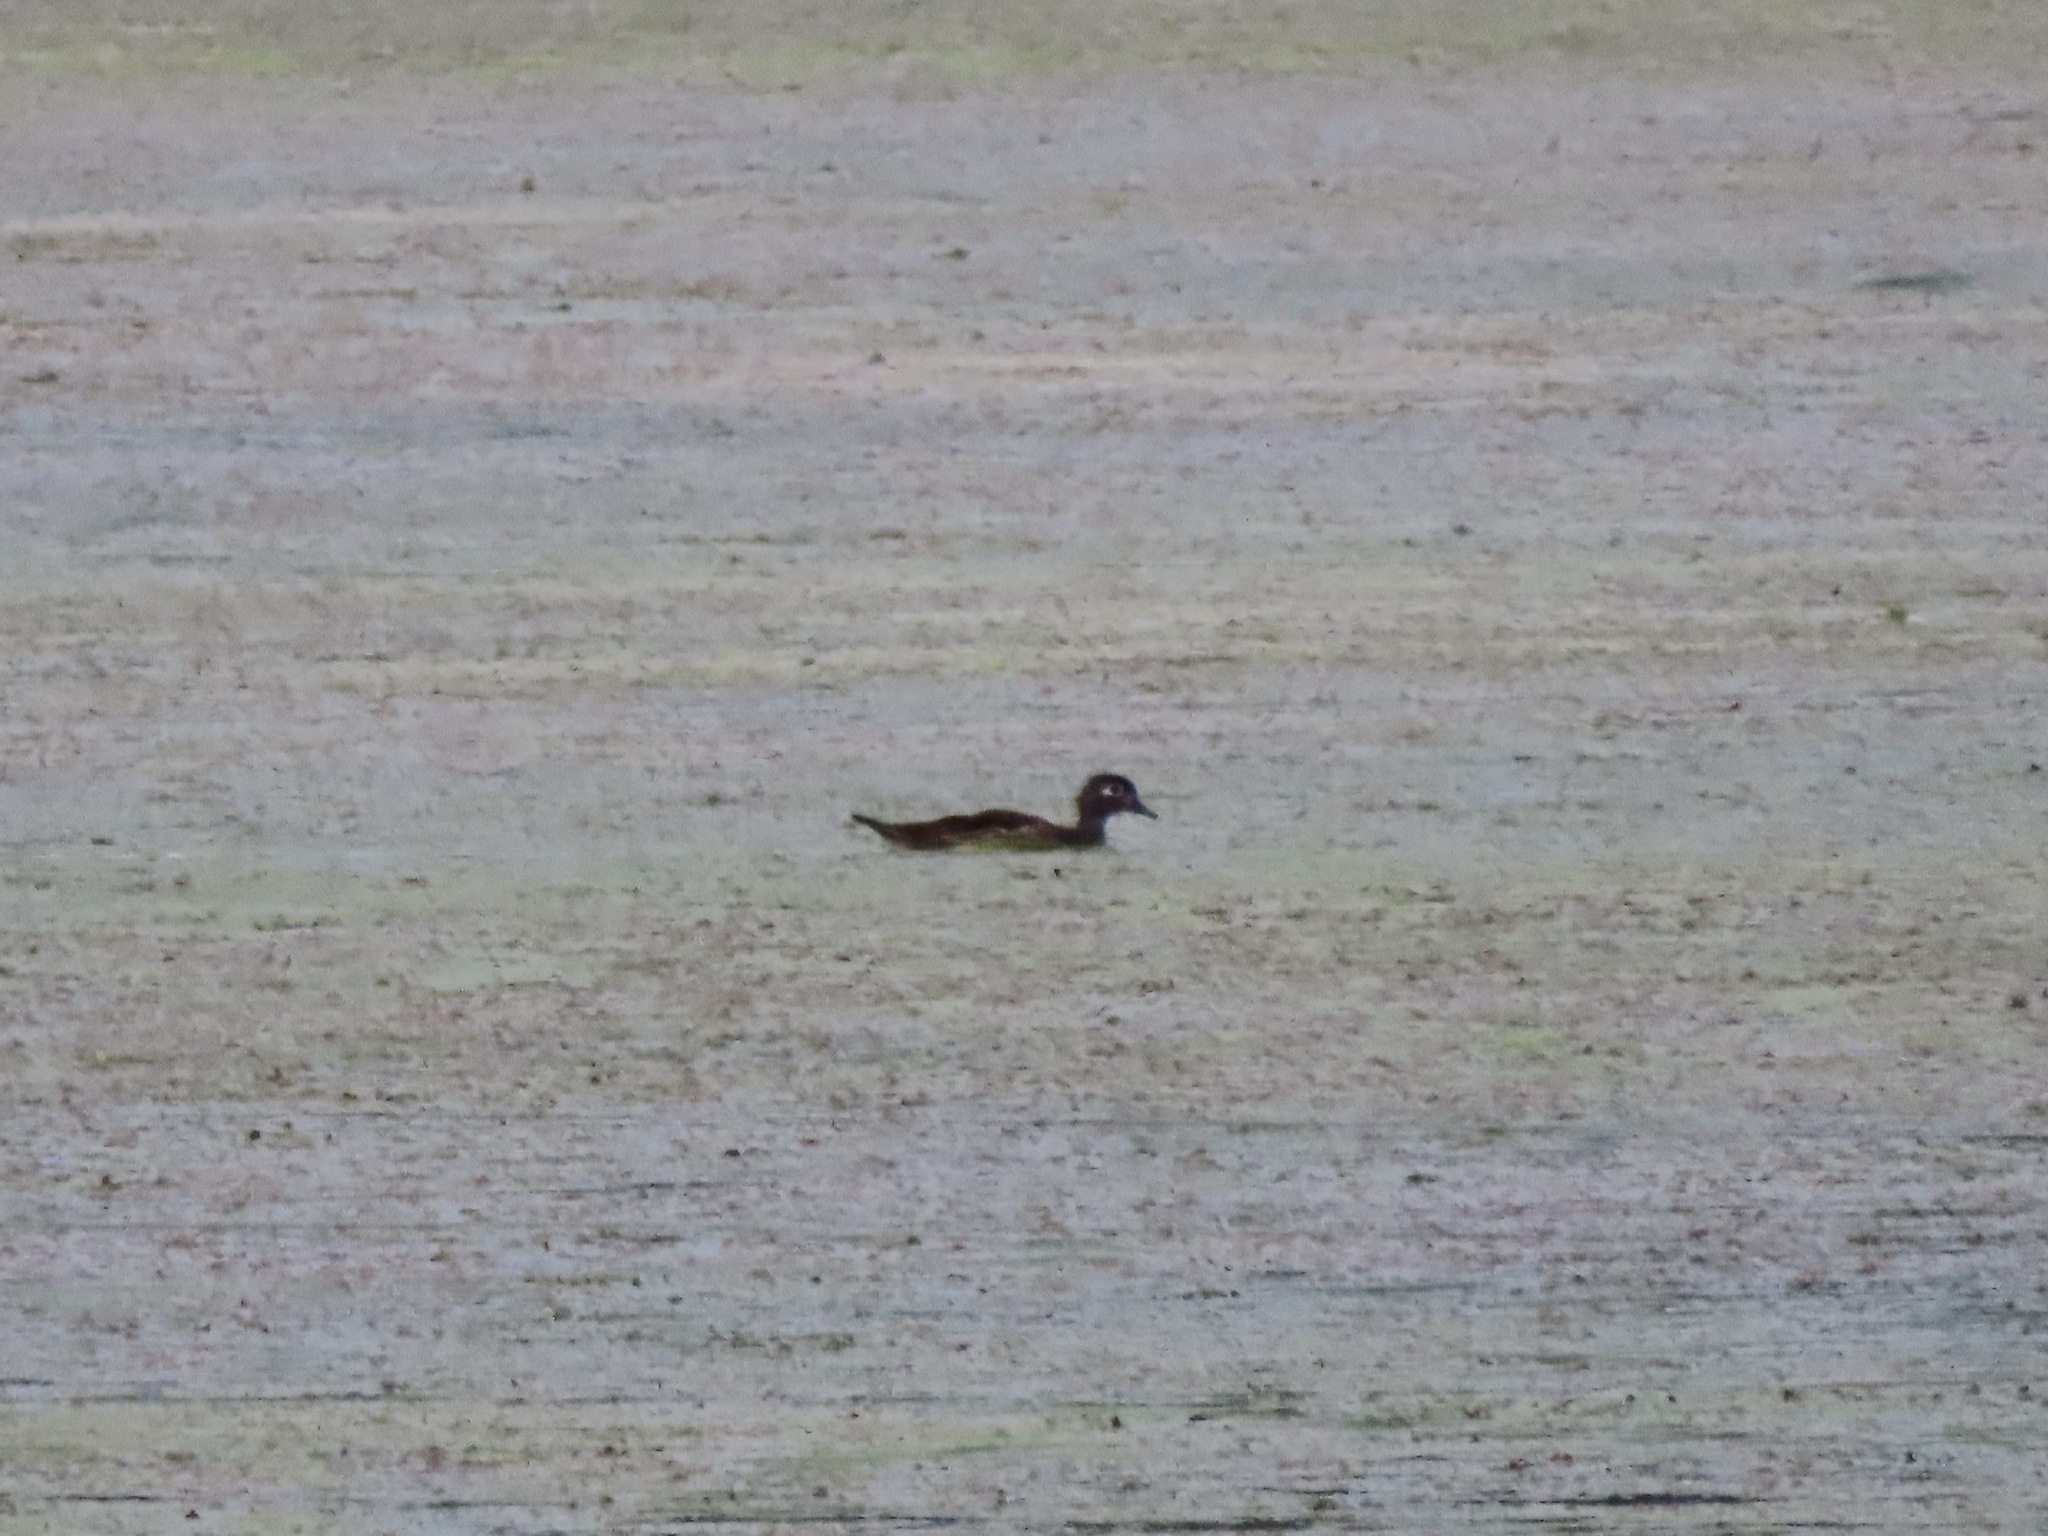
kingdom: Animalia
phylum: Chordata
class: Aves
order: Anseriformes
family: Anatidae
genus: Aix
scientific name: Aix sponsa
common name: Wood duck
